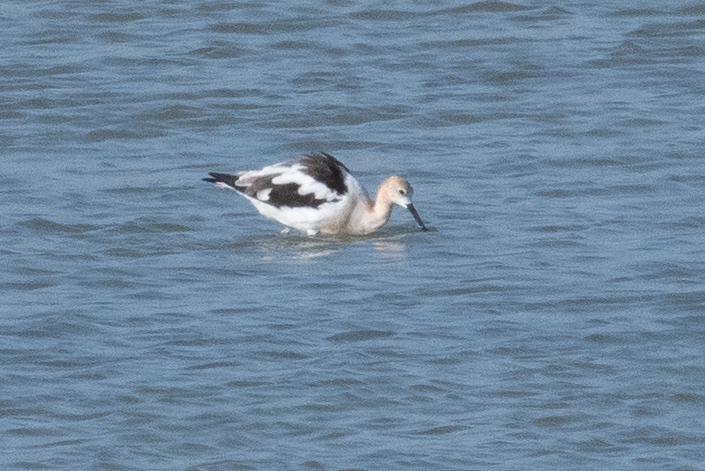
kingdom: Animalia
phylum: Chordata
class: Aves
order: Charadriiformes
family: Recurvirostridae
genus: Recurvirostra
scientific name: Recurvirostra americana
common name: American avocet
